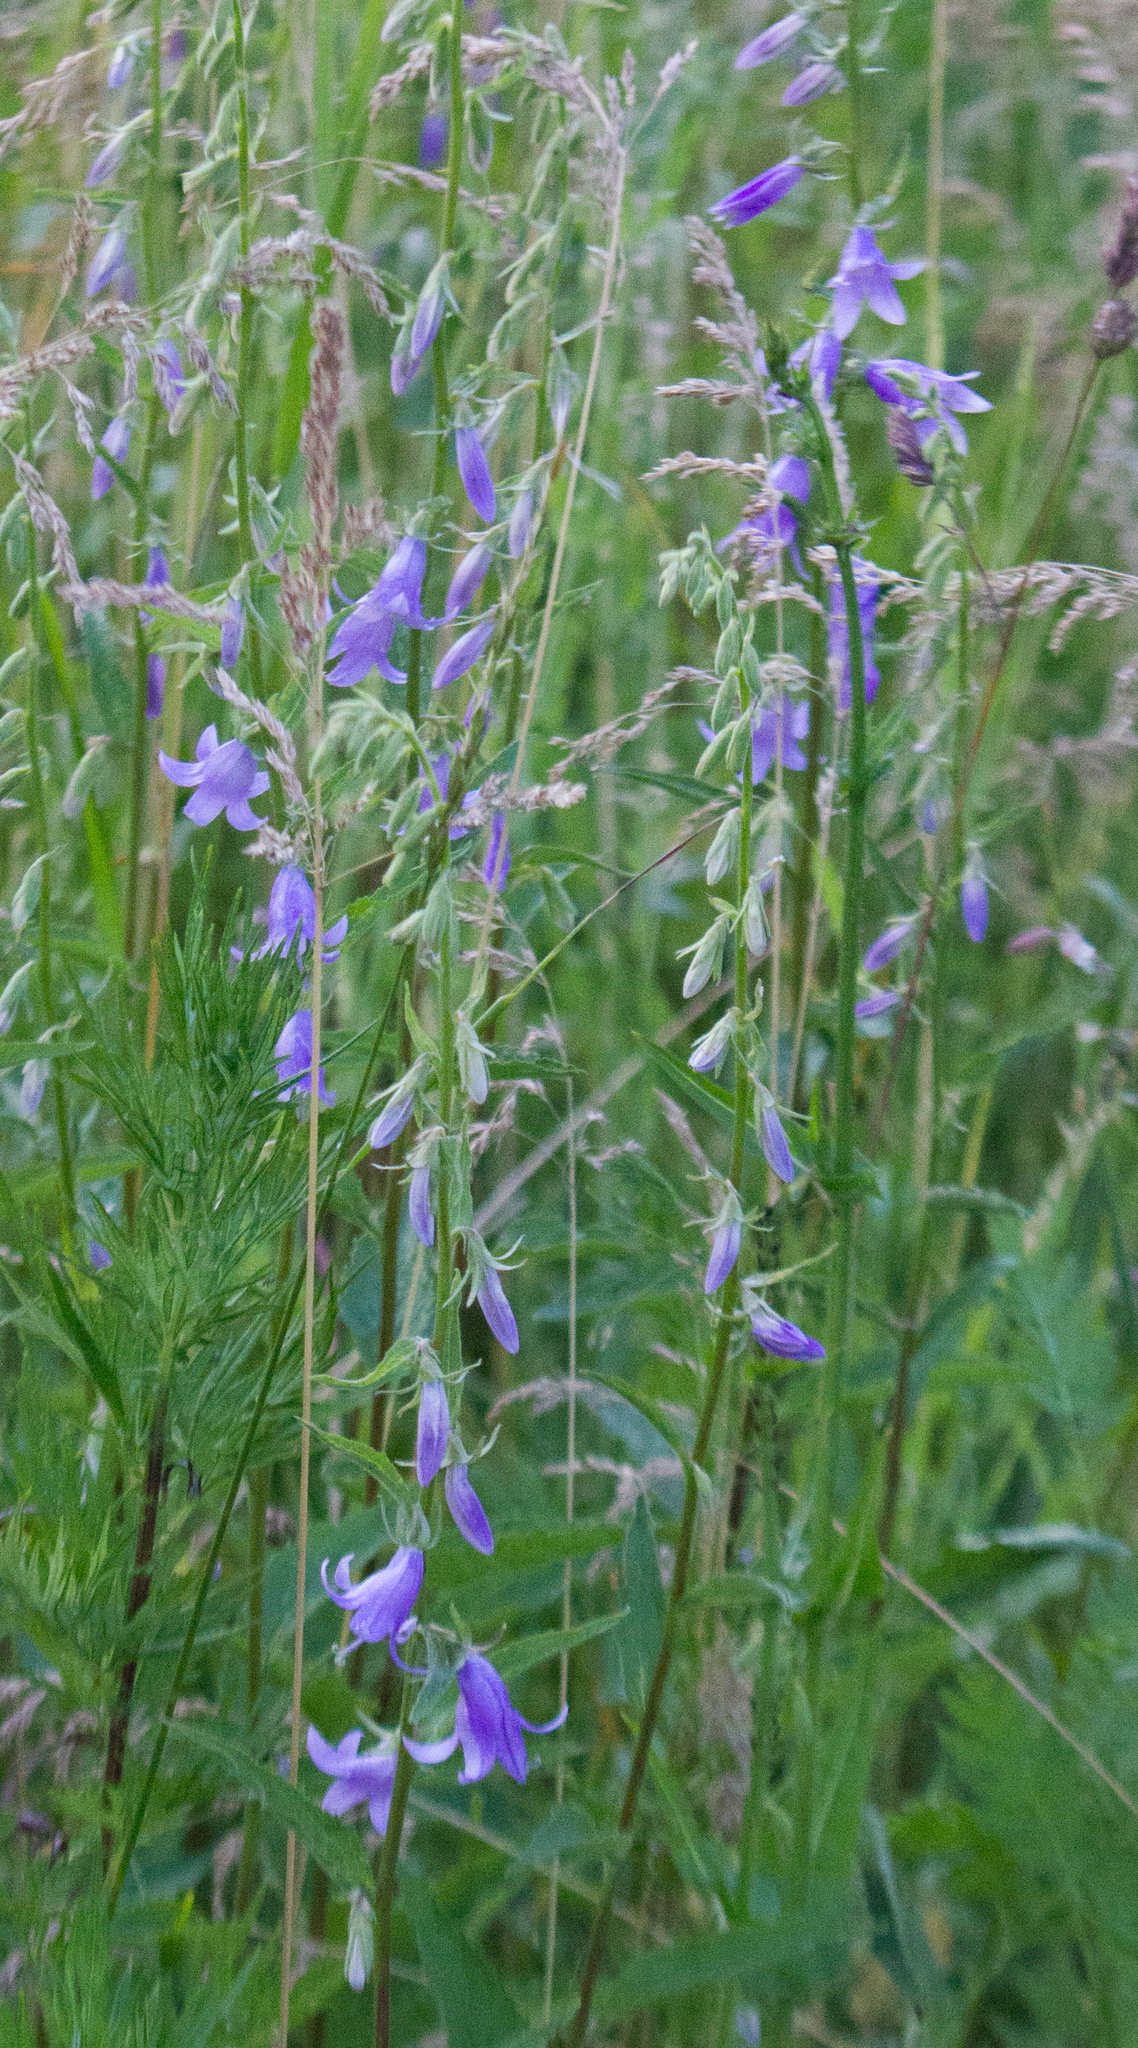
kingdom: Plantae
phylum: Tracheophyta
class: Magnoliopsida
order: Asterales
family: Campanulaceae
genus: Campanula
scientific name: Campanula rapunculoides
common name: Creeping bellflower
